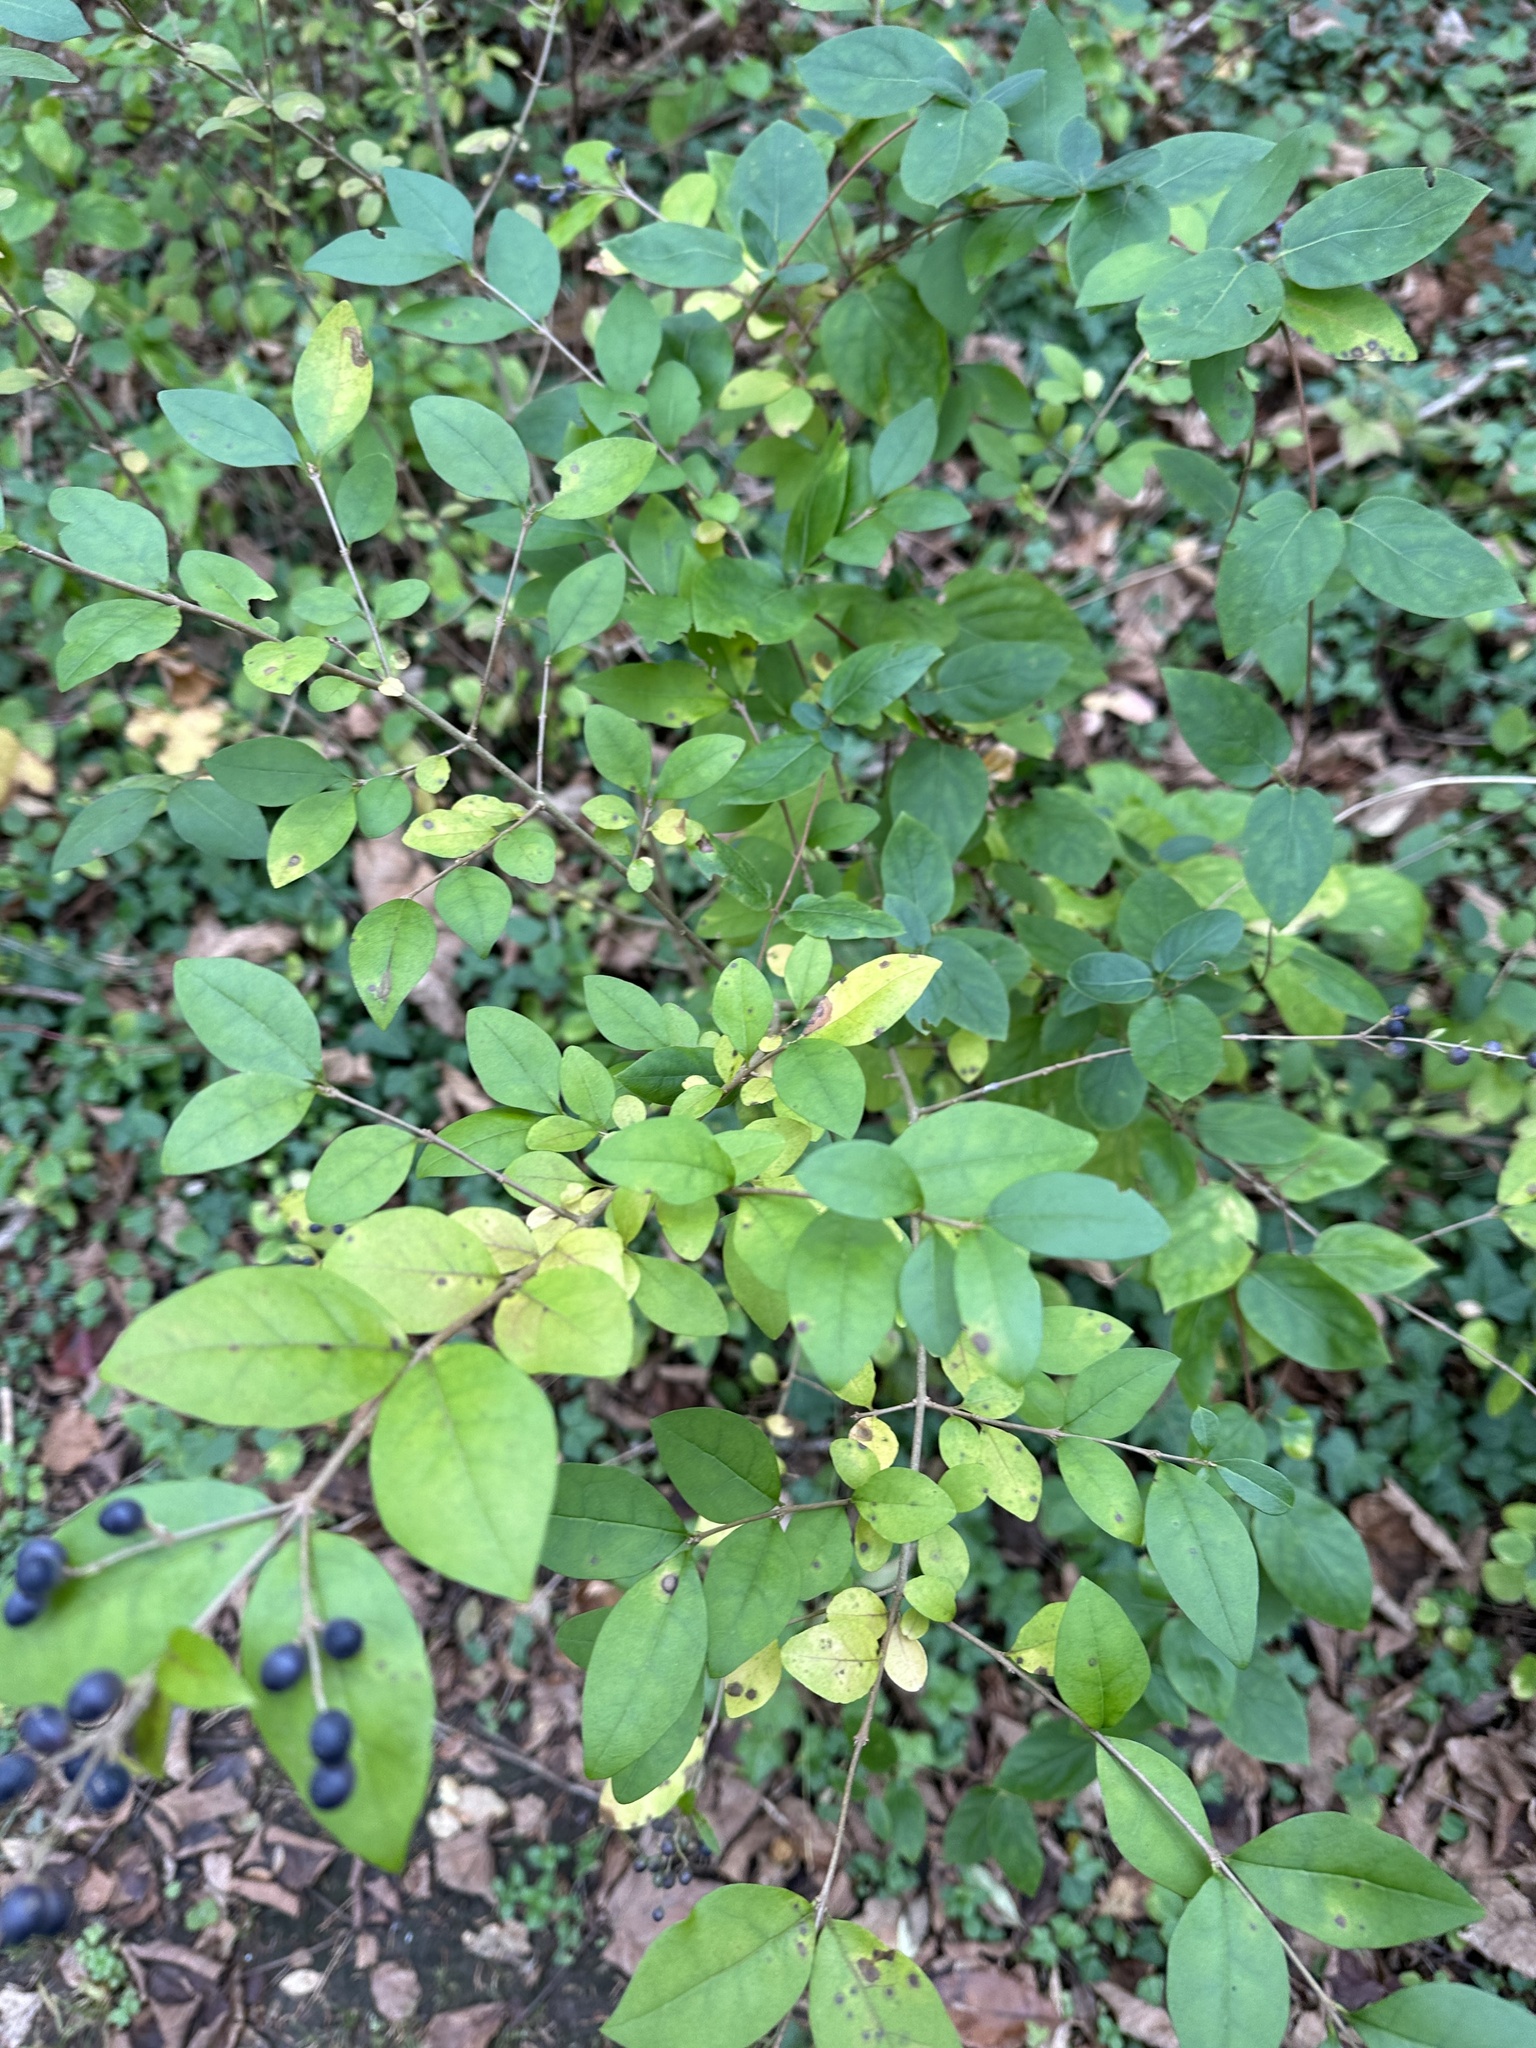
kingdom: Plantae
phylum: Tracheophyta
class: Magnoliopsida
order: Lamiales
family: Oleaceae
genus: Ligustrum
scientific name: Ligustrum ovalifolium
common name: California privet
